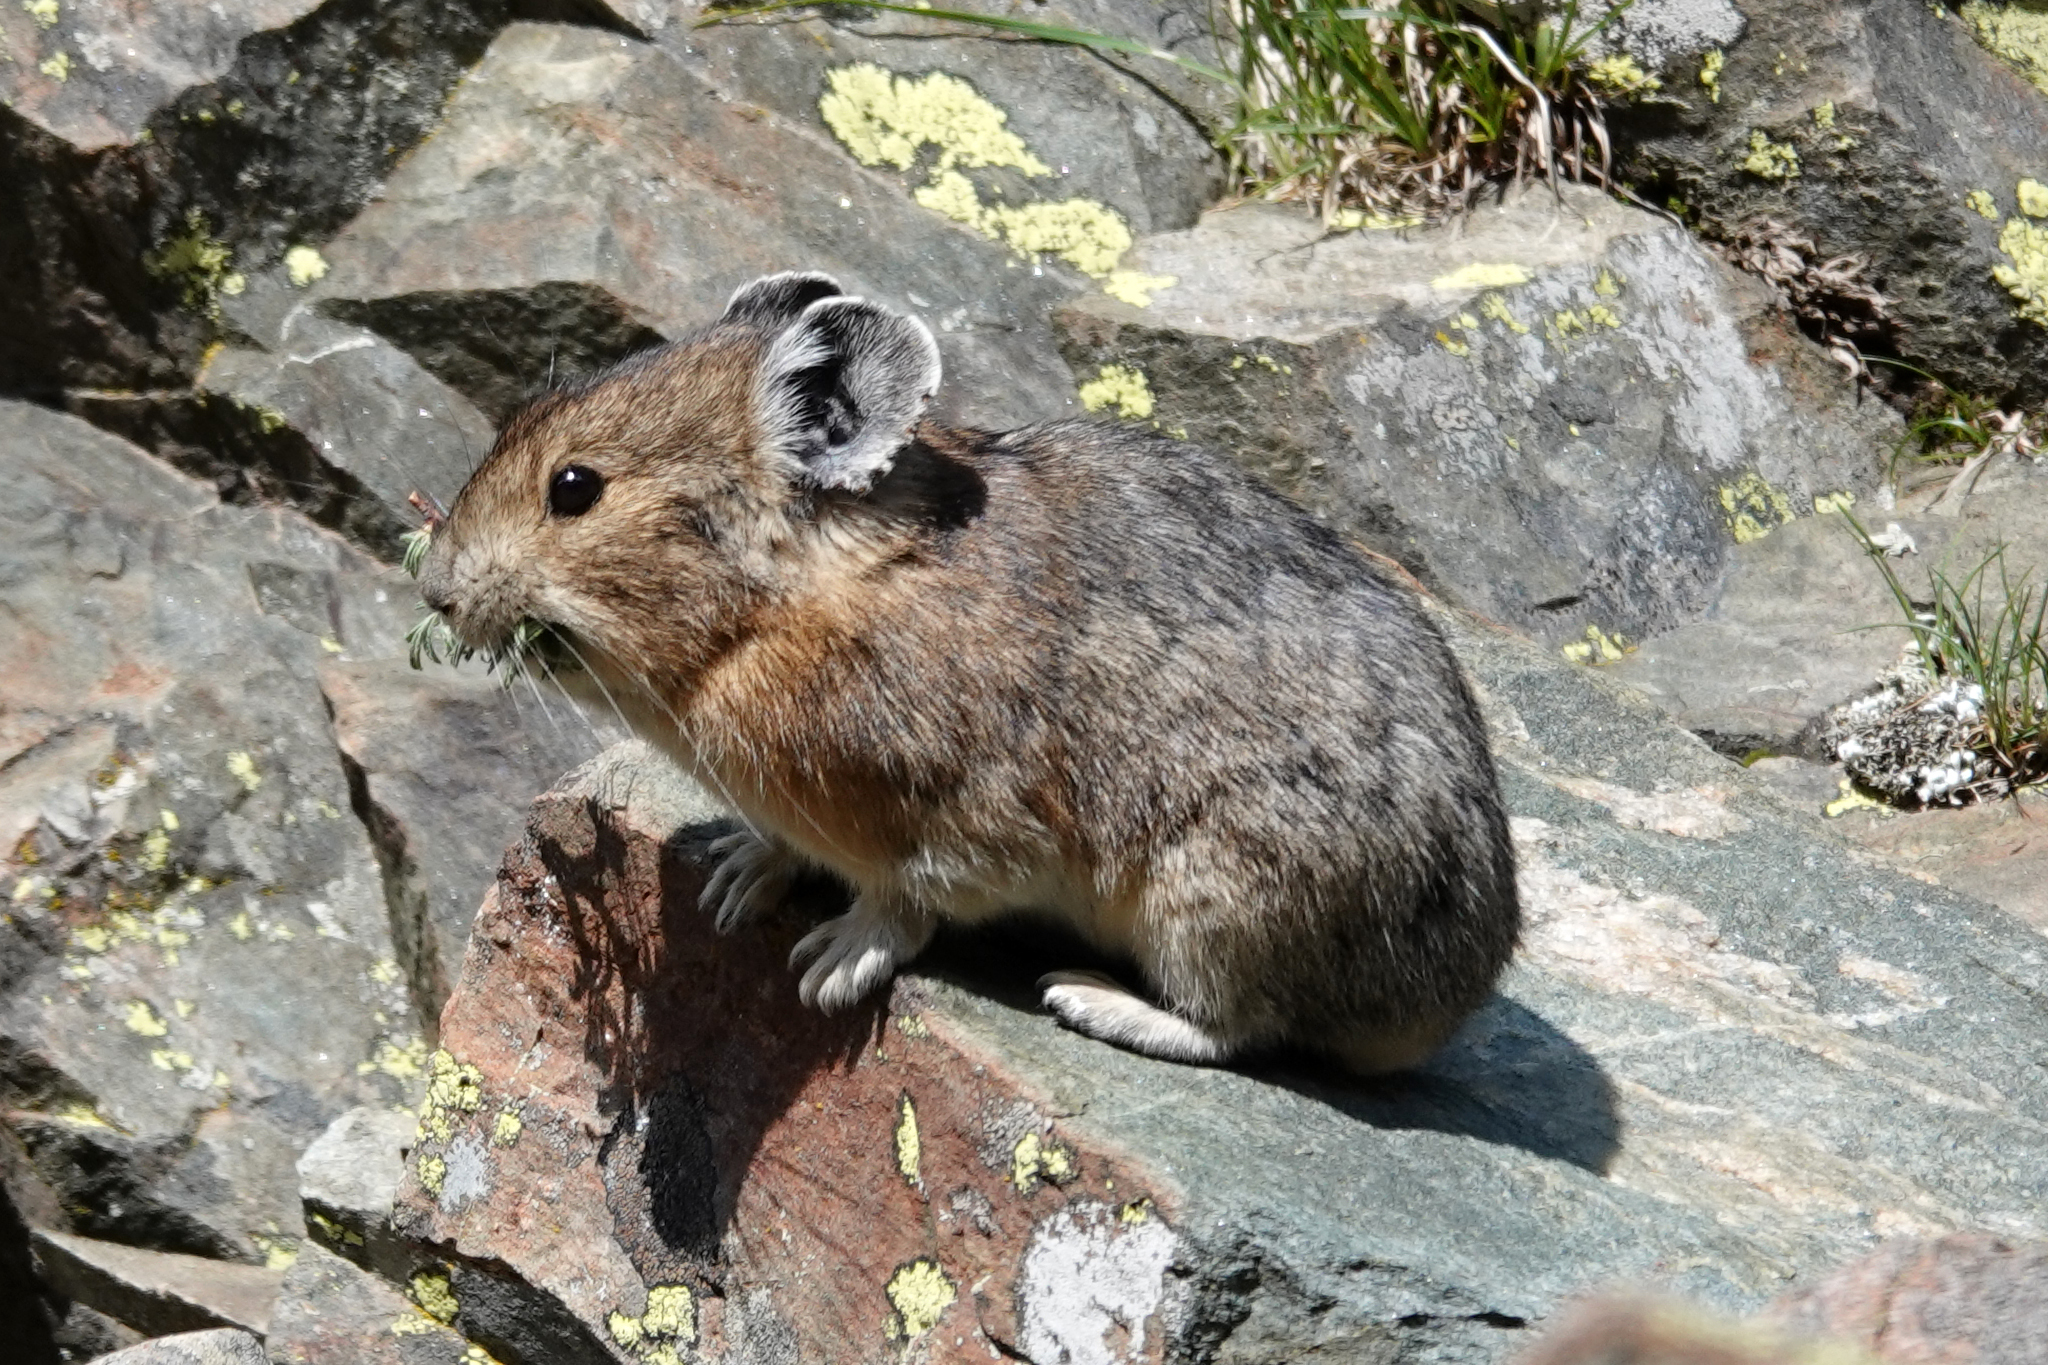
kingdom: Animalia
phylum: Chordata
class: Mammalia
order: Lagomorpha
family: Ochotonidae
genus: Ochotona
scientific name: Ochotona princeps
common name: American pika
